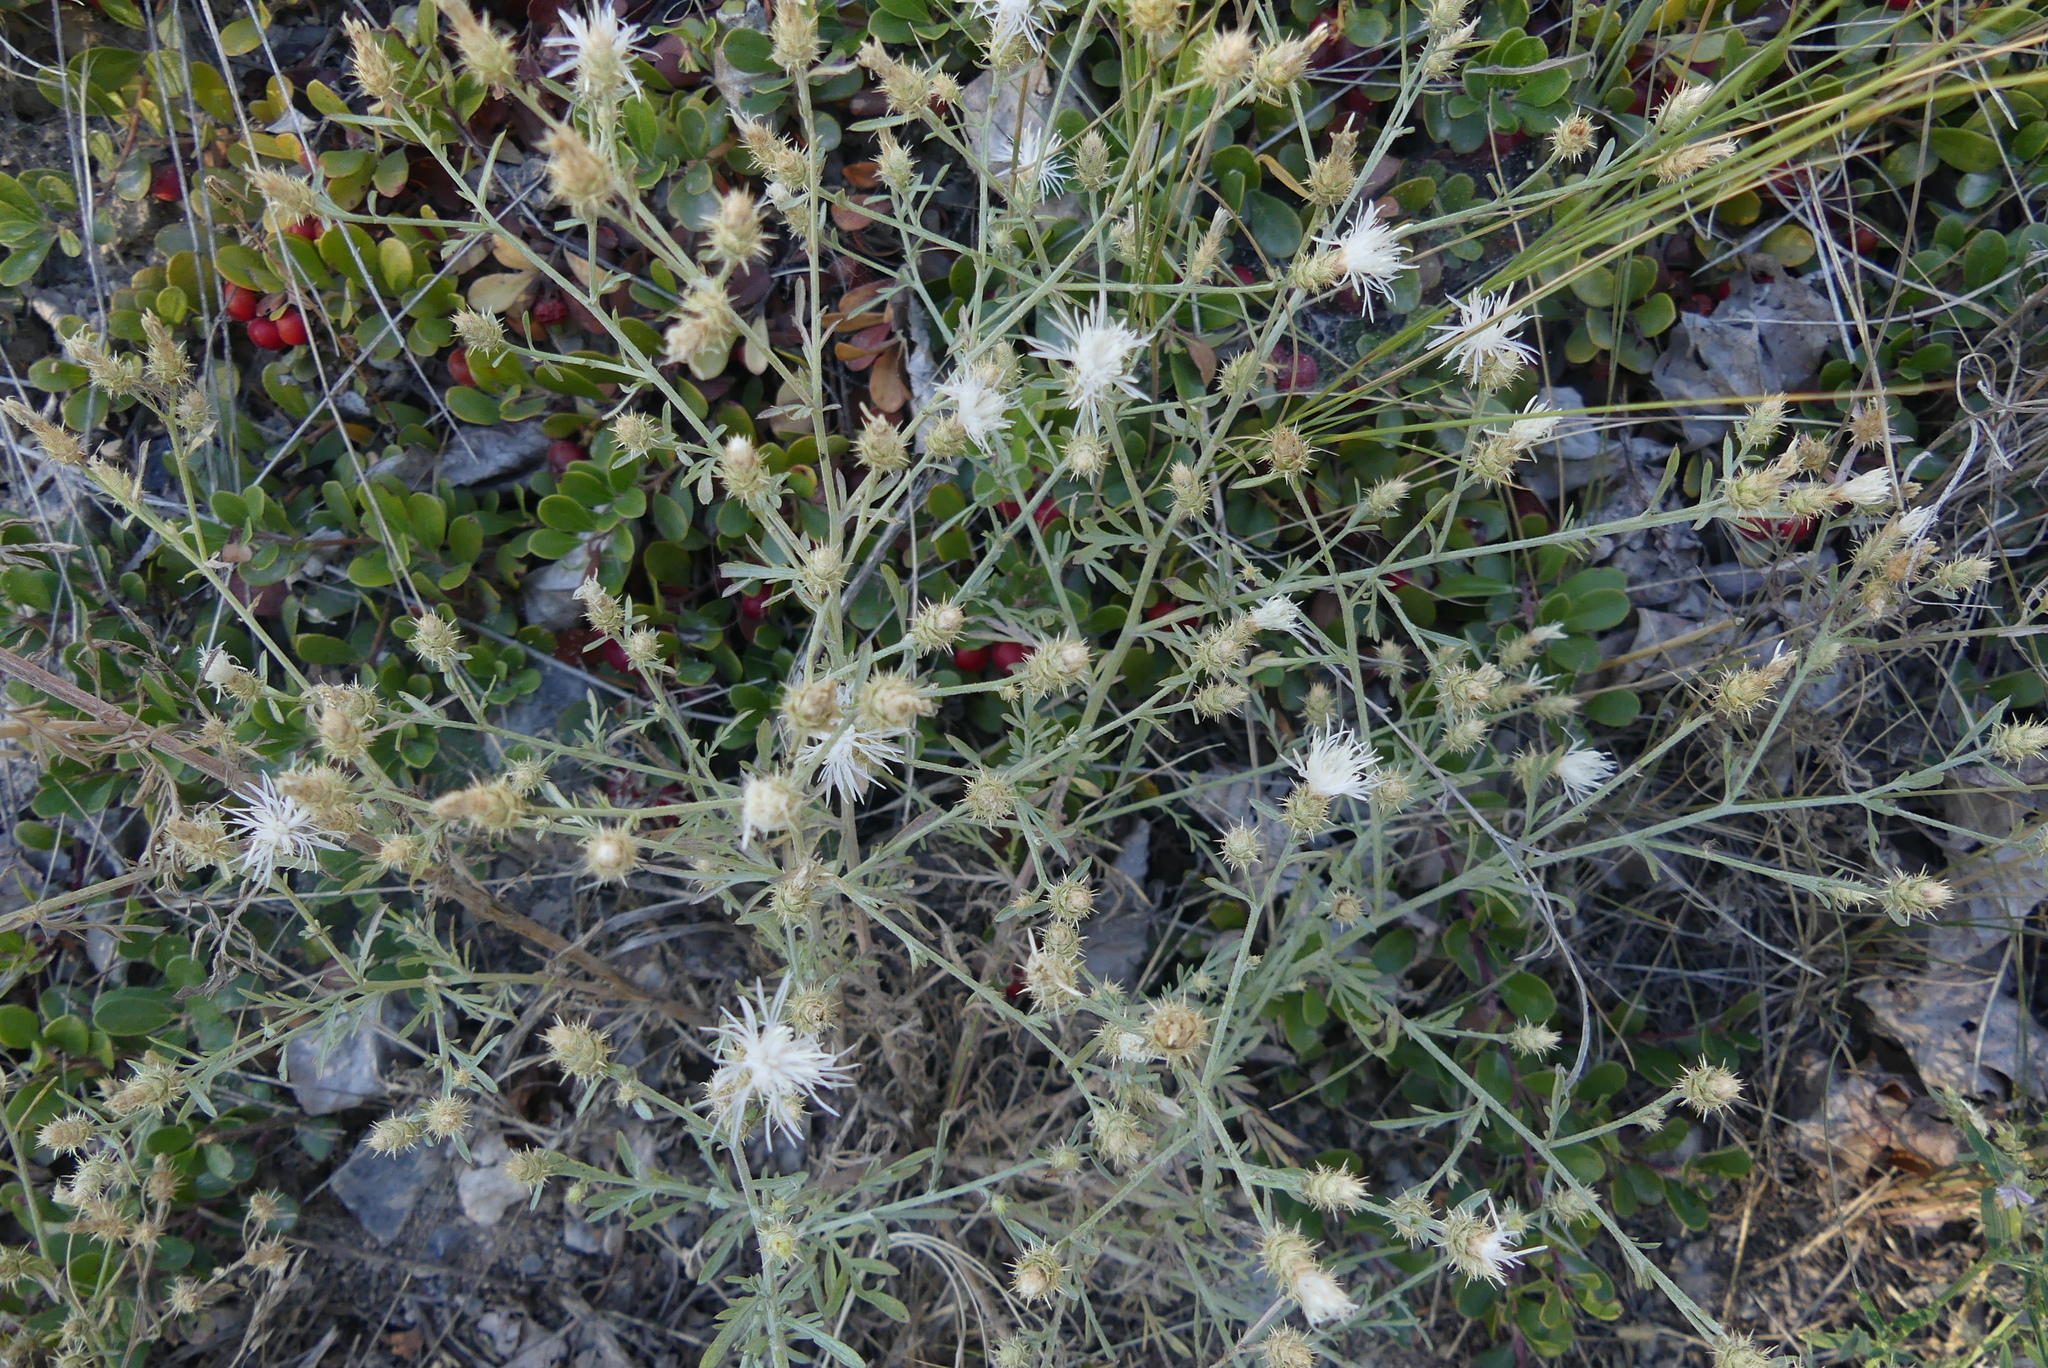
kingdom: Plantae
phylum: Tracheophyta
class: Magnoliopsida
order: Asterales
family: Asteraceae
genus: Centaurea
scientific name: Centaurea diffusa
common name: Diffuse knapweed
